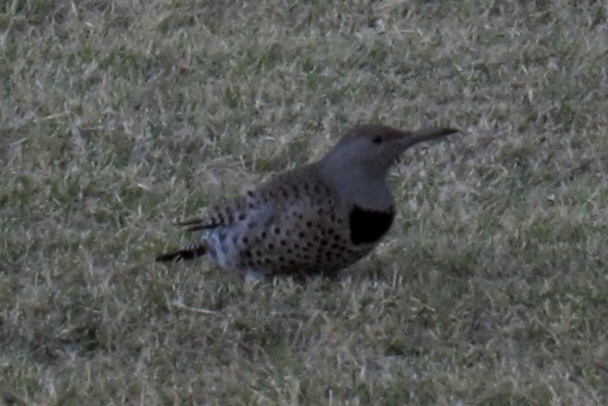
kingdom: Animalia
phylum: Chordata
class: Aves
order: Piciformes
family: Picidae
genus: Colaptes
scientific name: Colaptes auratus
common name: Northern flicker
